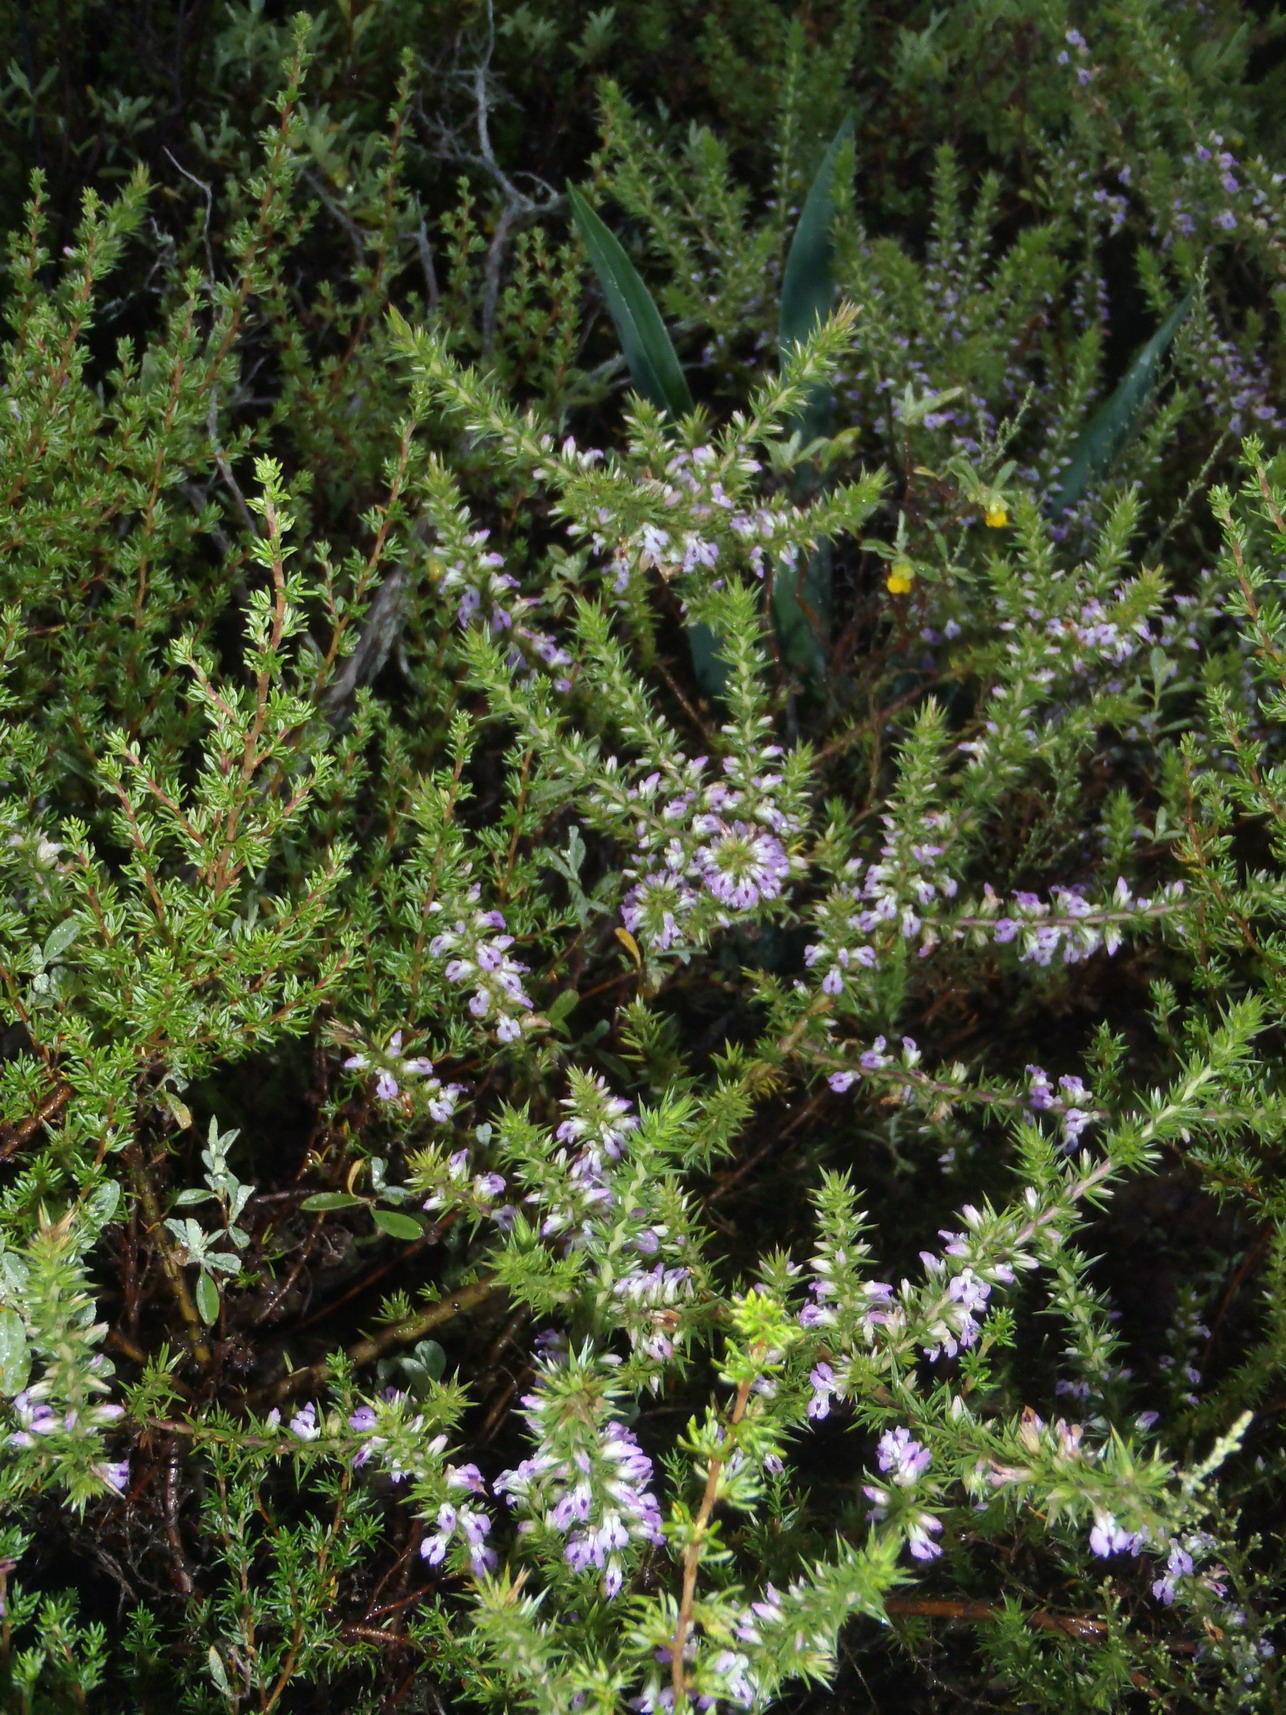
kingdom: Plantae
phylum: Tracheophyta
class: Magnoliopsida
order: Fabales
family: Polygalaceae
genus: Muraltia
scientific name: Muraltia ericifolia
